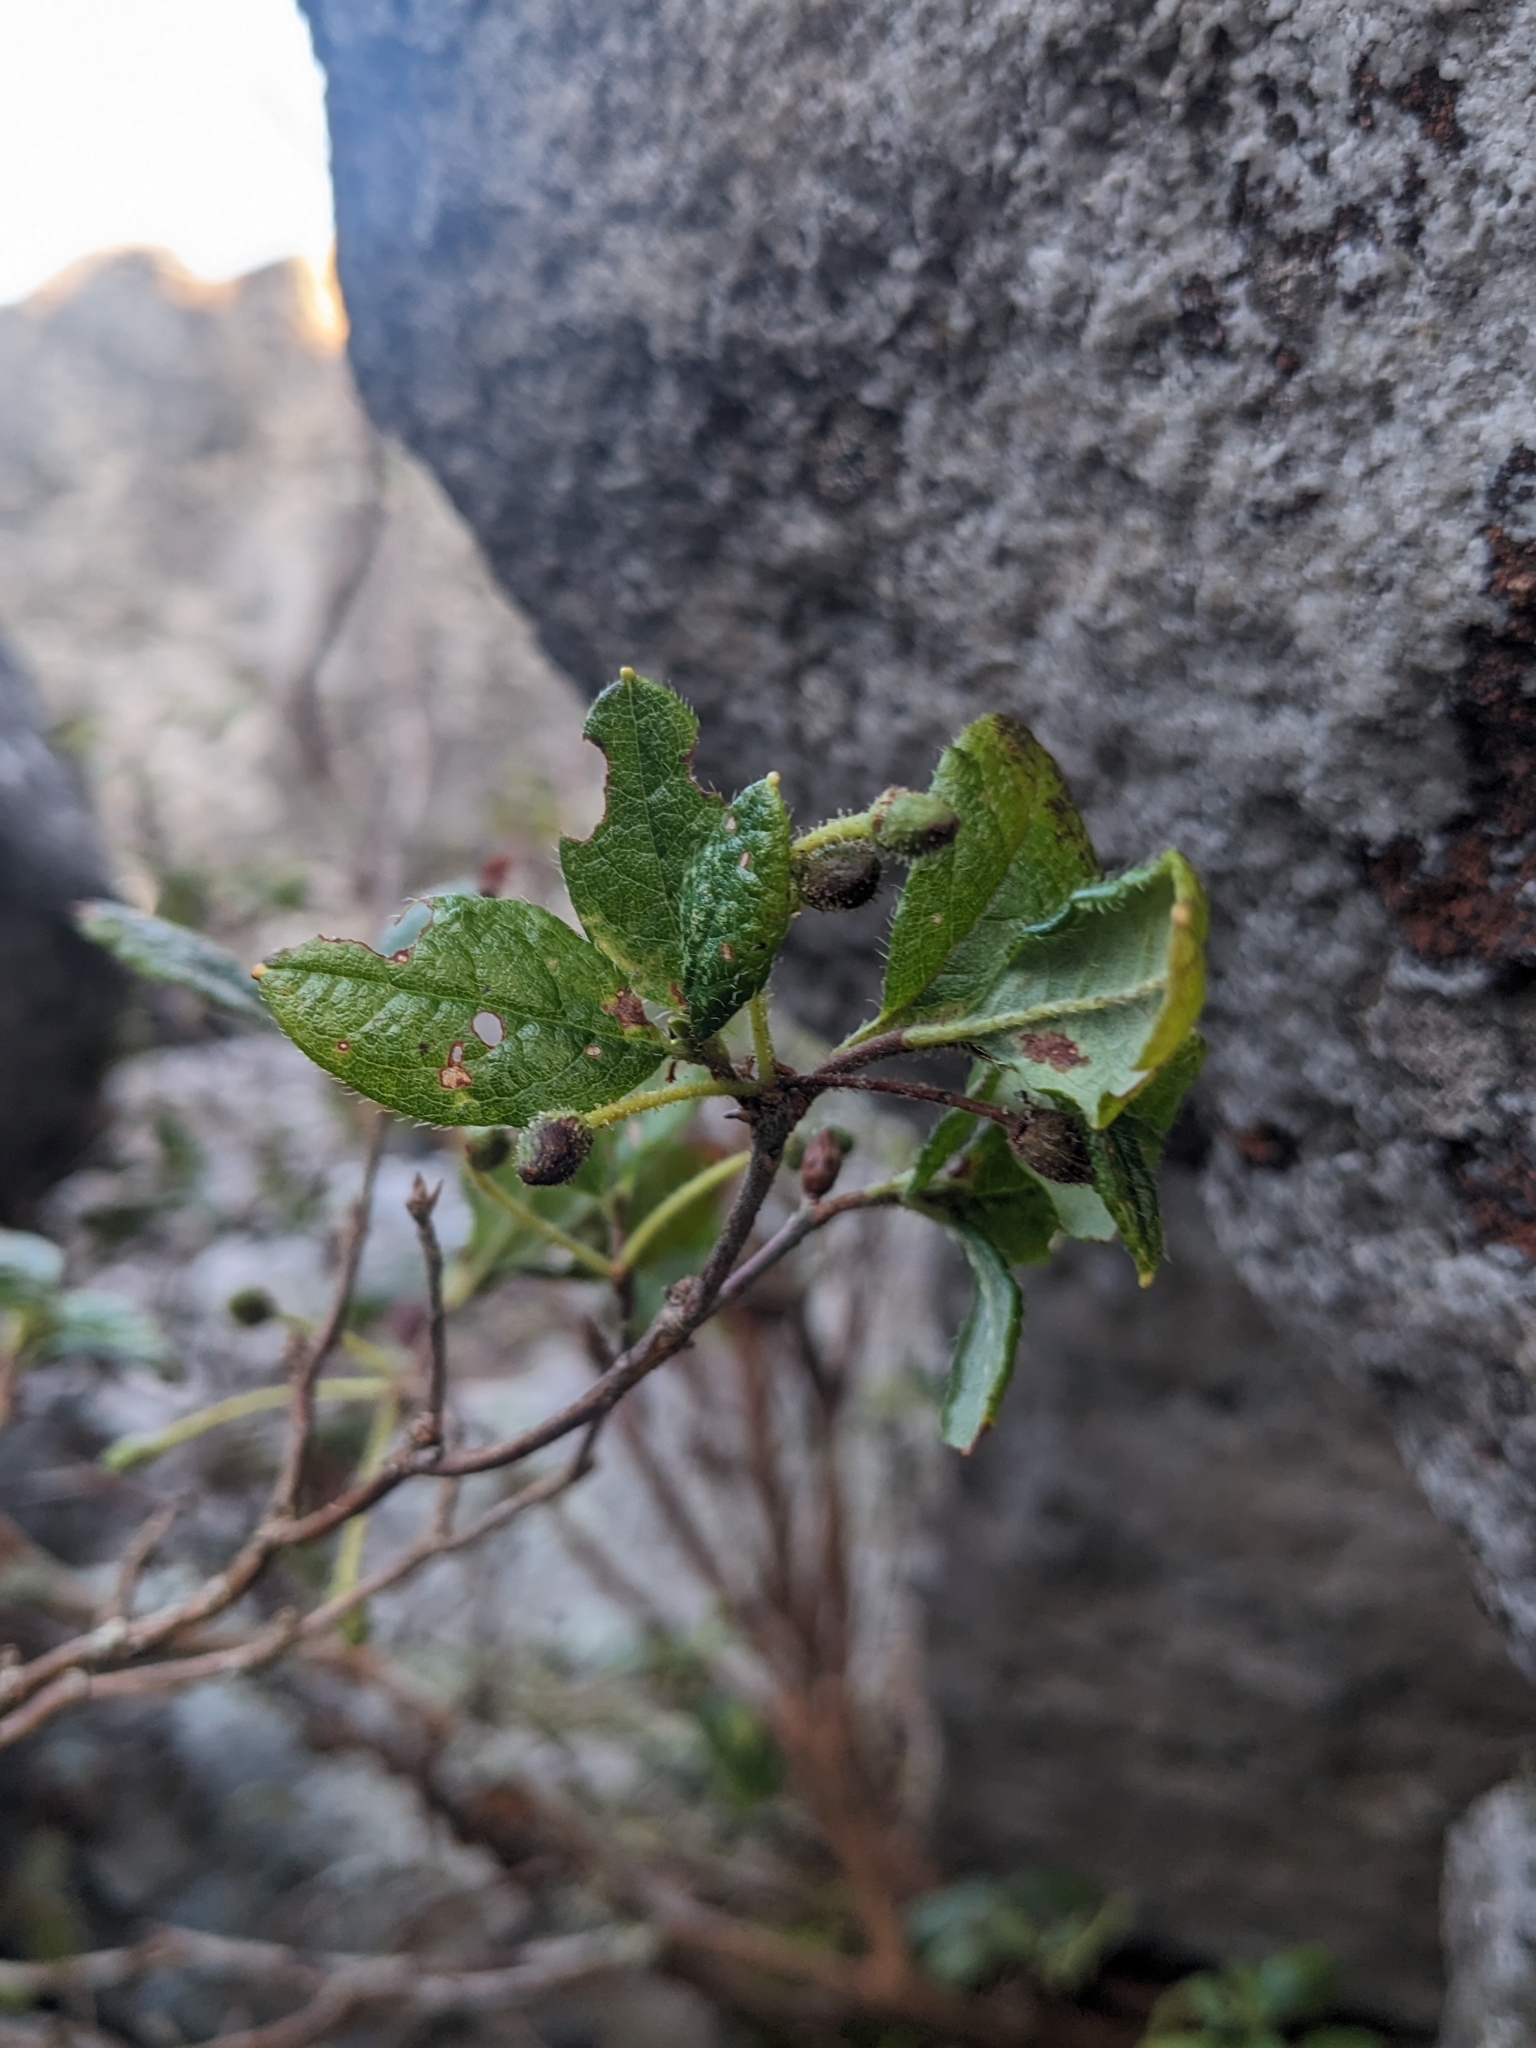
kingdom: Plantae
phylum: Tracheophyta
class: Magnoliopsida
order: Ericales
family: Ericaceae
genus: Rhododendron
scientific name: Rhododendron pilosum
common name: Hairy minniebush
